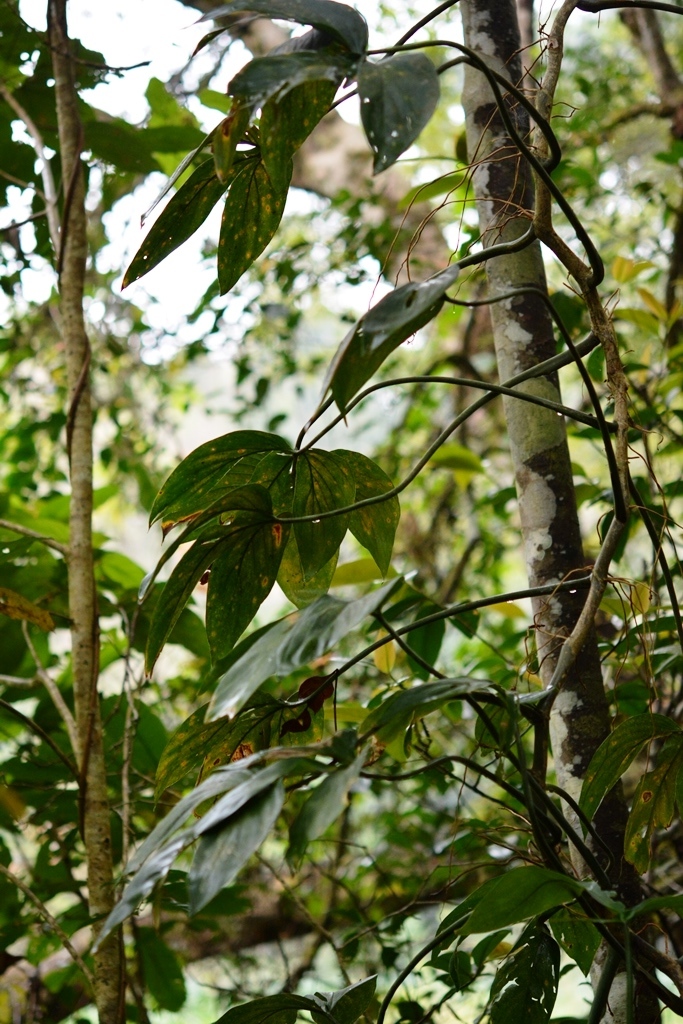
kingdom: Plantae
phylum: Tracheophyta
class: Liliopsida
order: Alismatales
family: Araceae
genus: Philodendron
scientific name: Philodendron tripartitum
